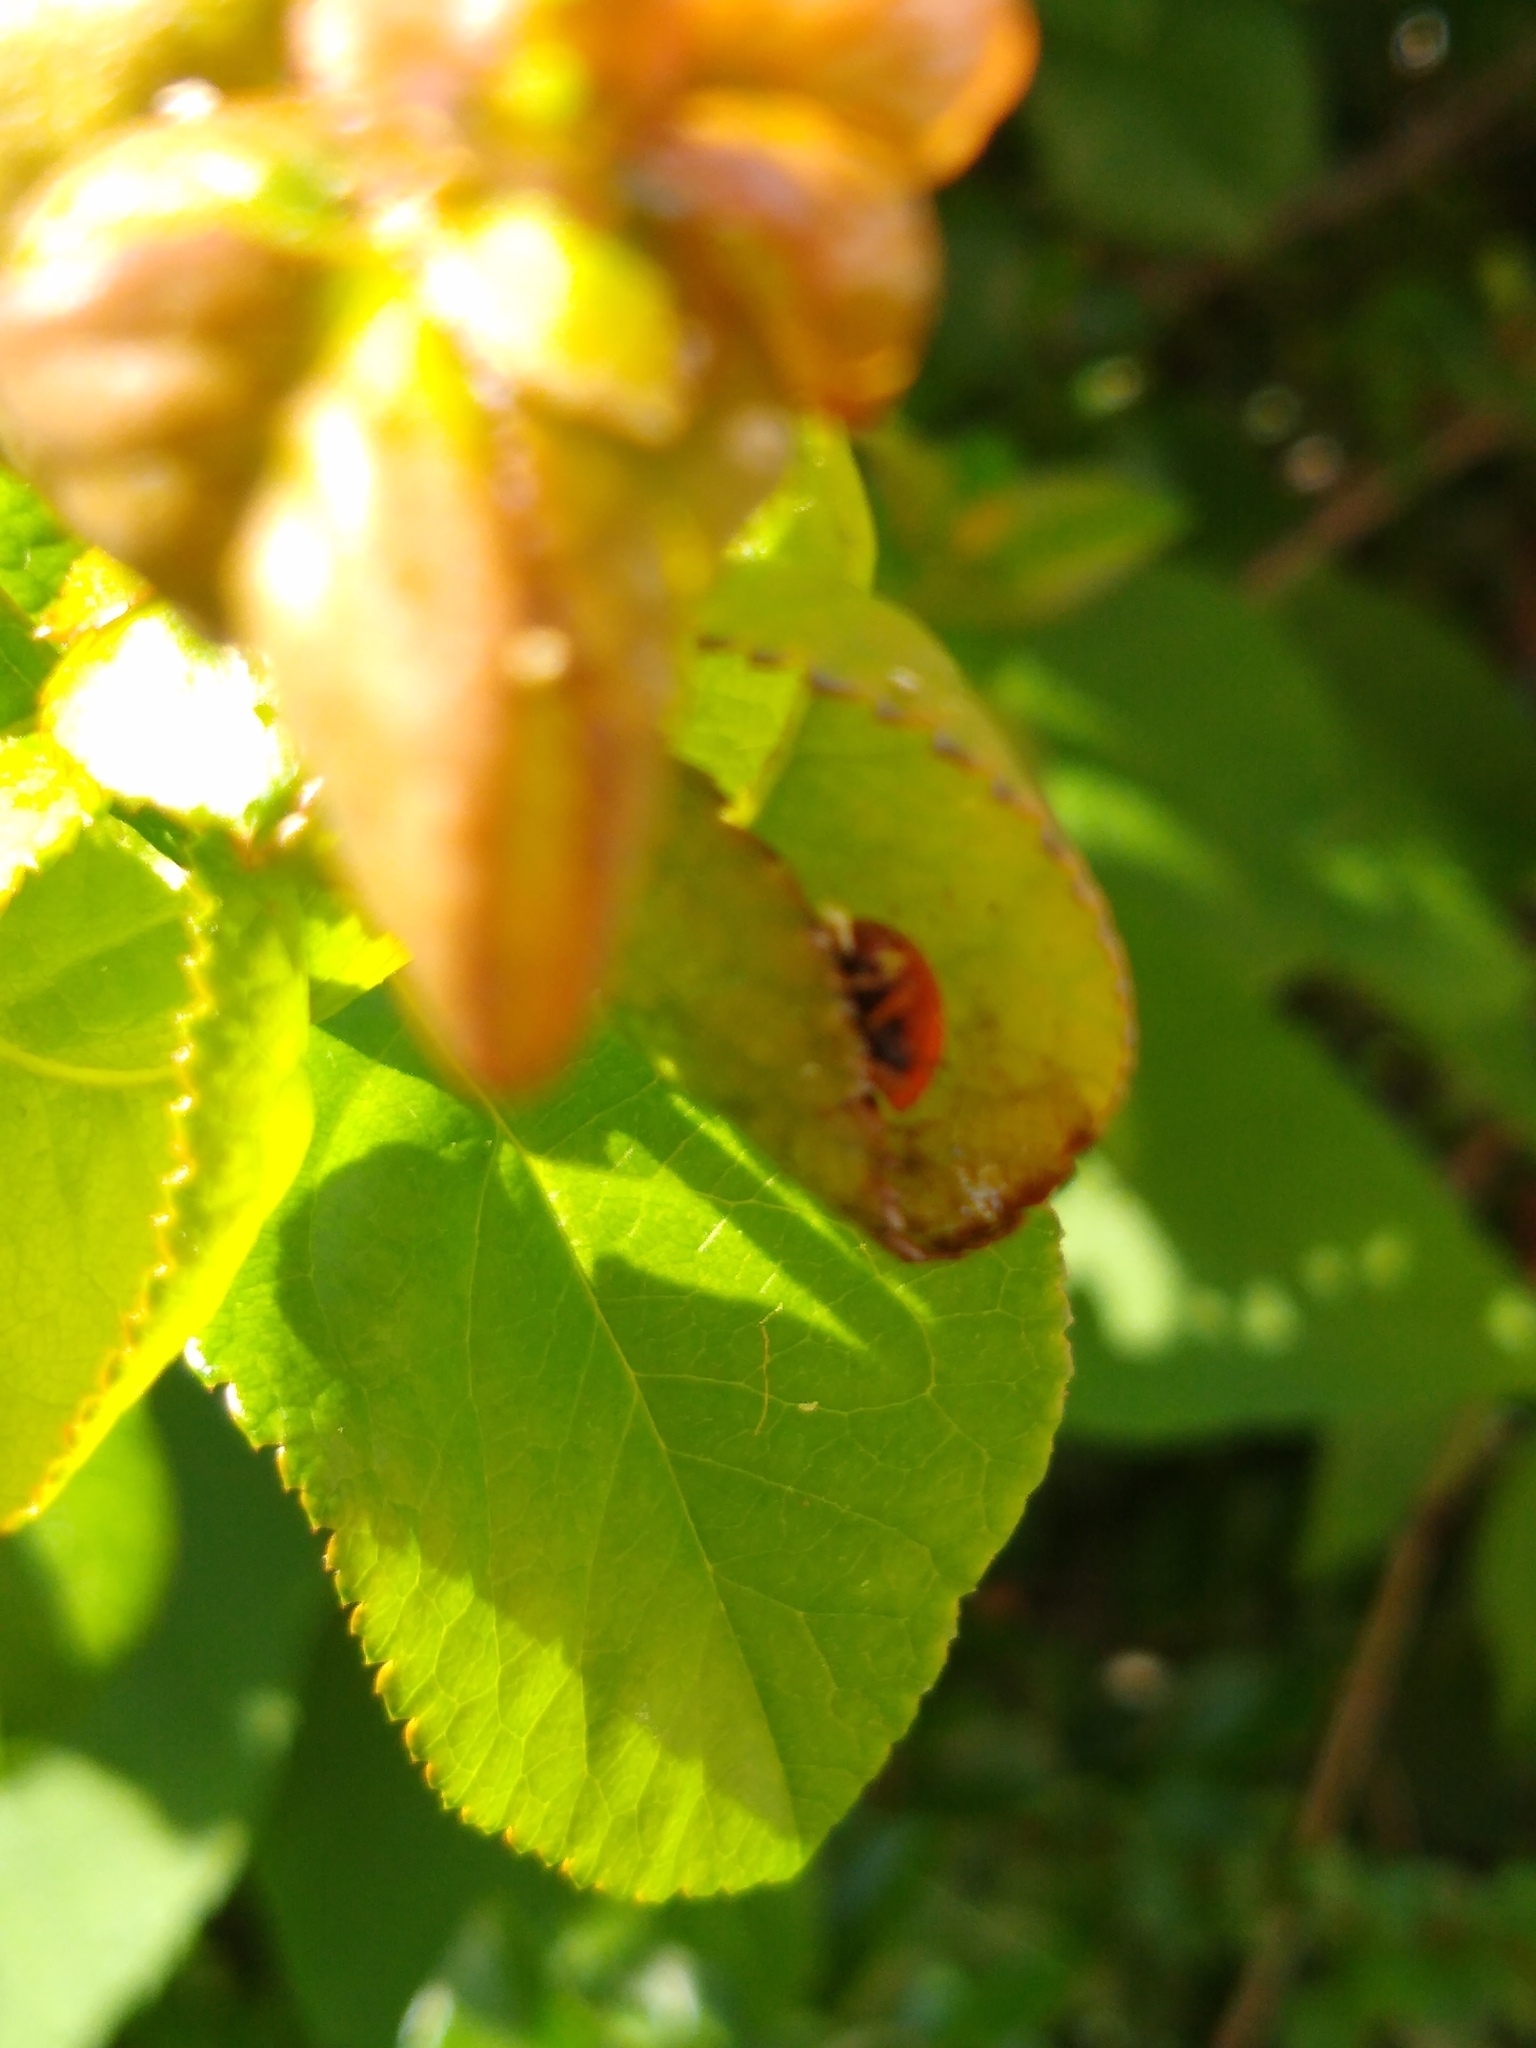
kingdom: Animalia
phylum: Arthropoda
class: Insecta
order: Coleoptera
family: Coccinellidae
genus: Harmonia
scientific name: Harmonia axyridis
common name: Harlequin ladybird
